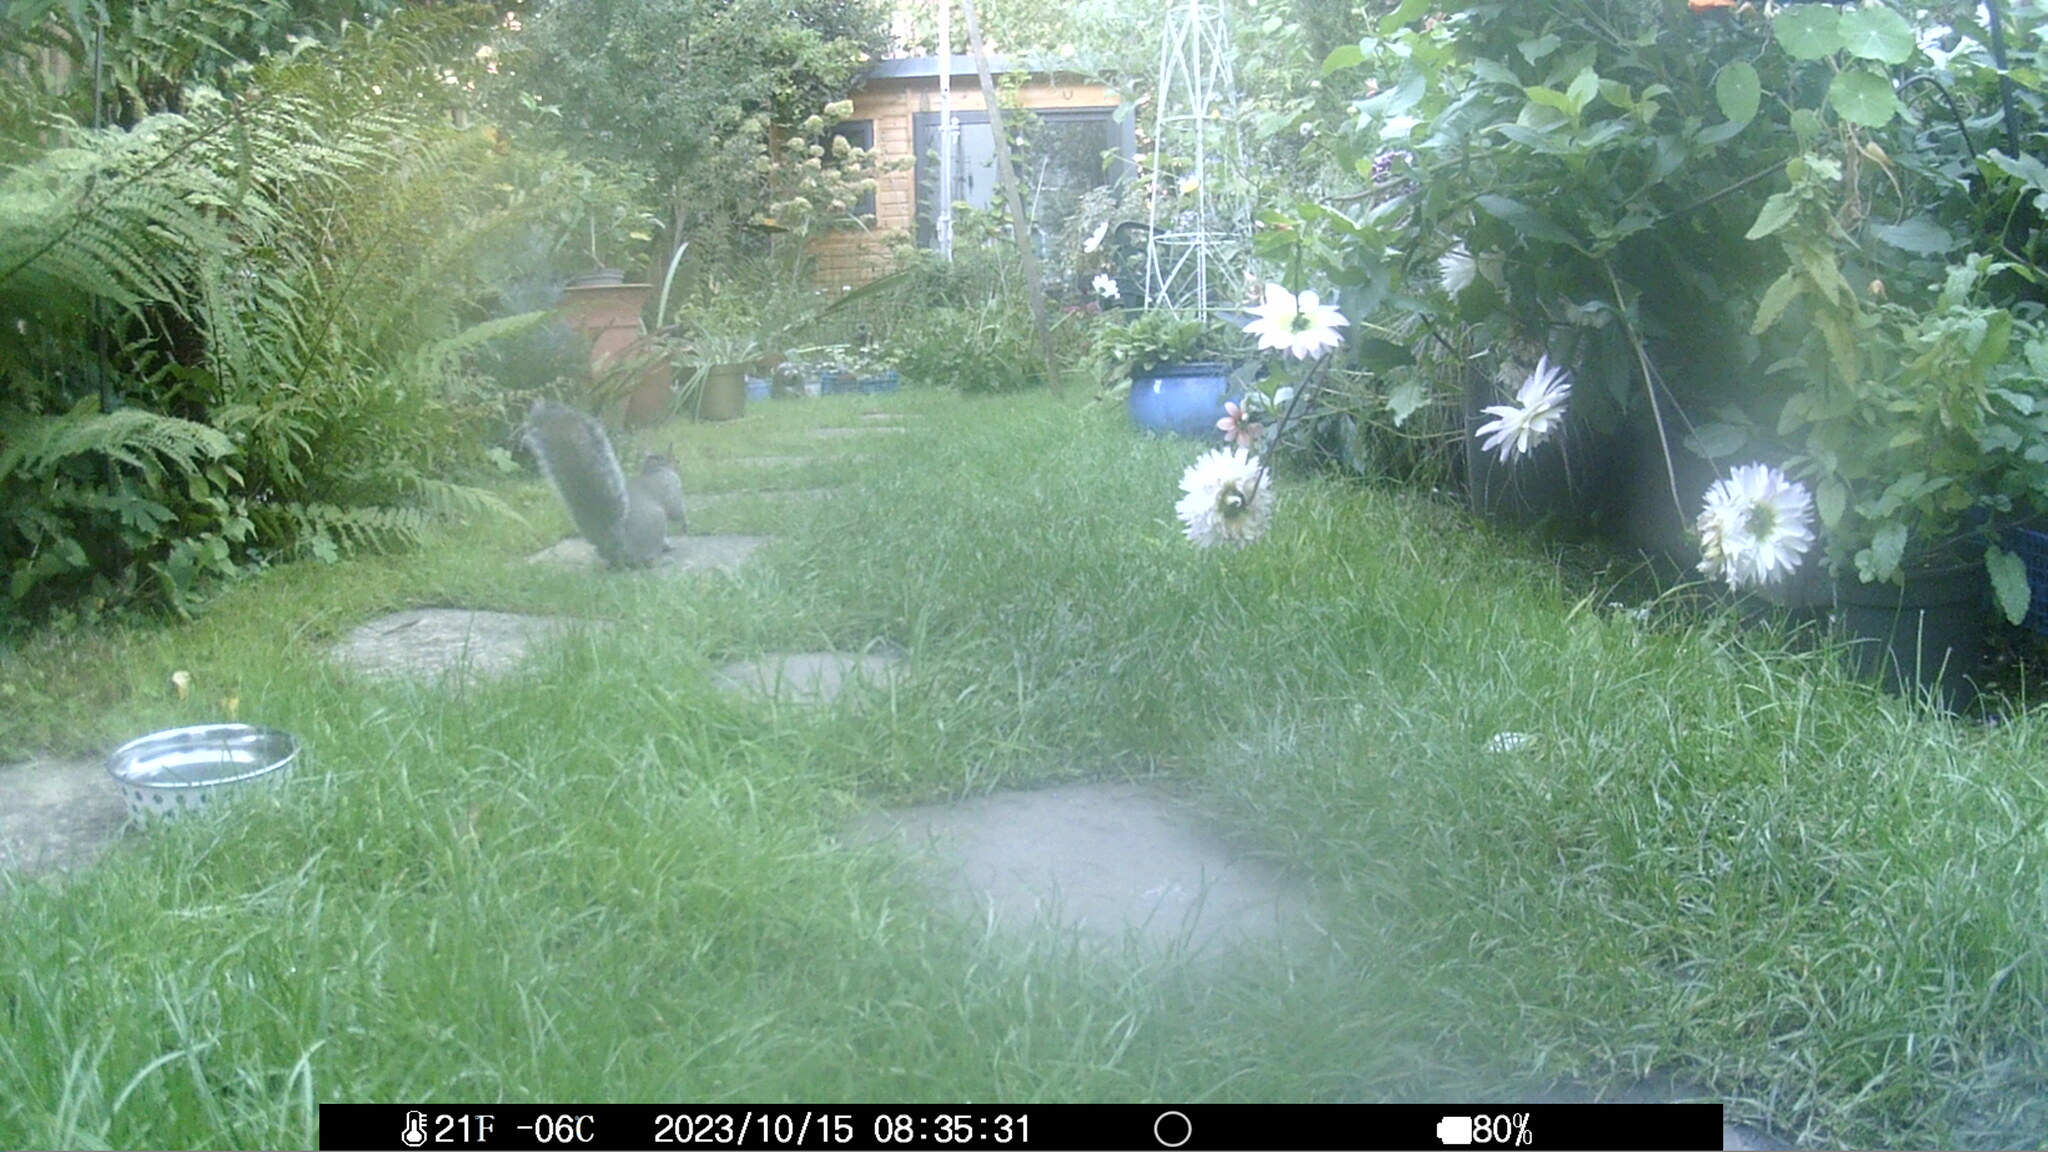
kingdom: Animalia
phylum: Chordata
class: Mammalia
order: Rodentia
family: Sciuridae
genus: Sciurus
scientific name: Sciurus carolinensis
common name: Eastern gray squirrel
